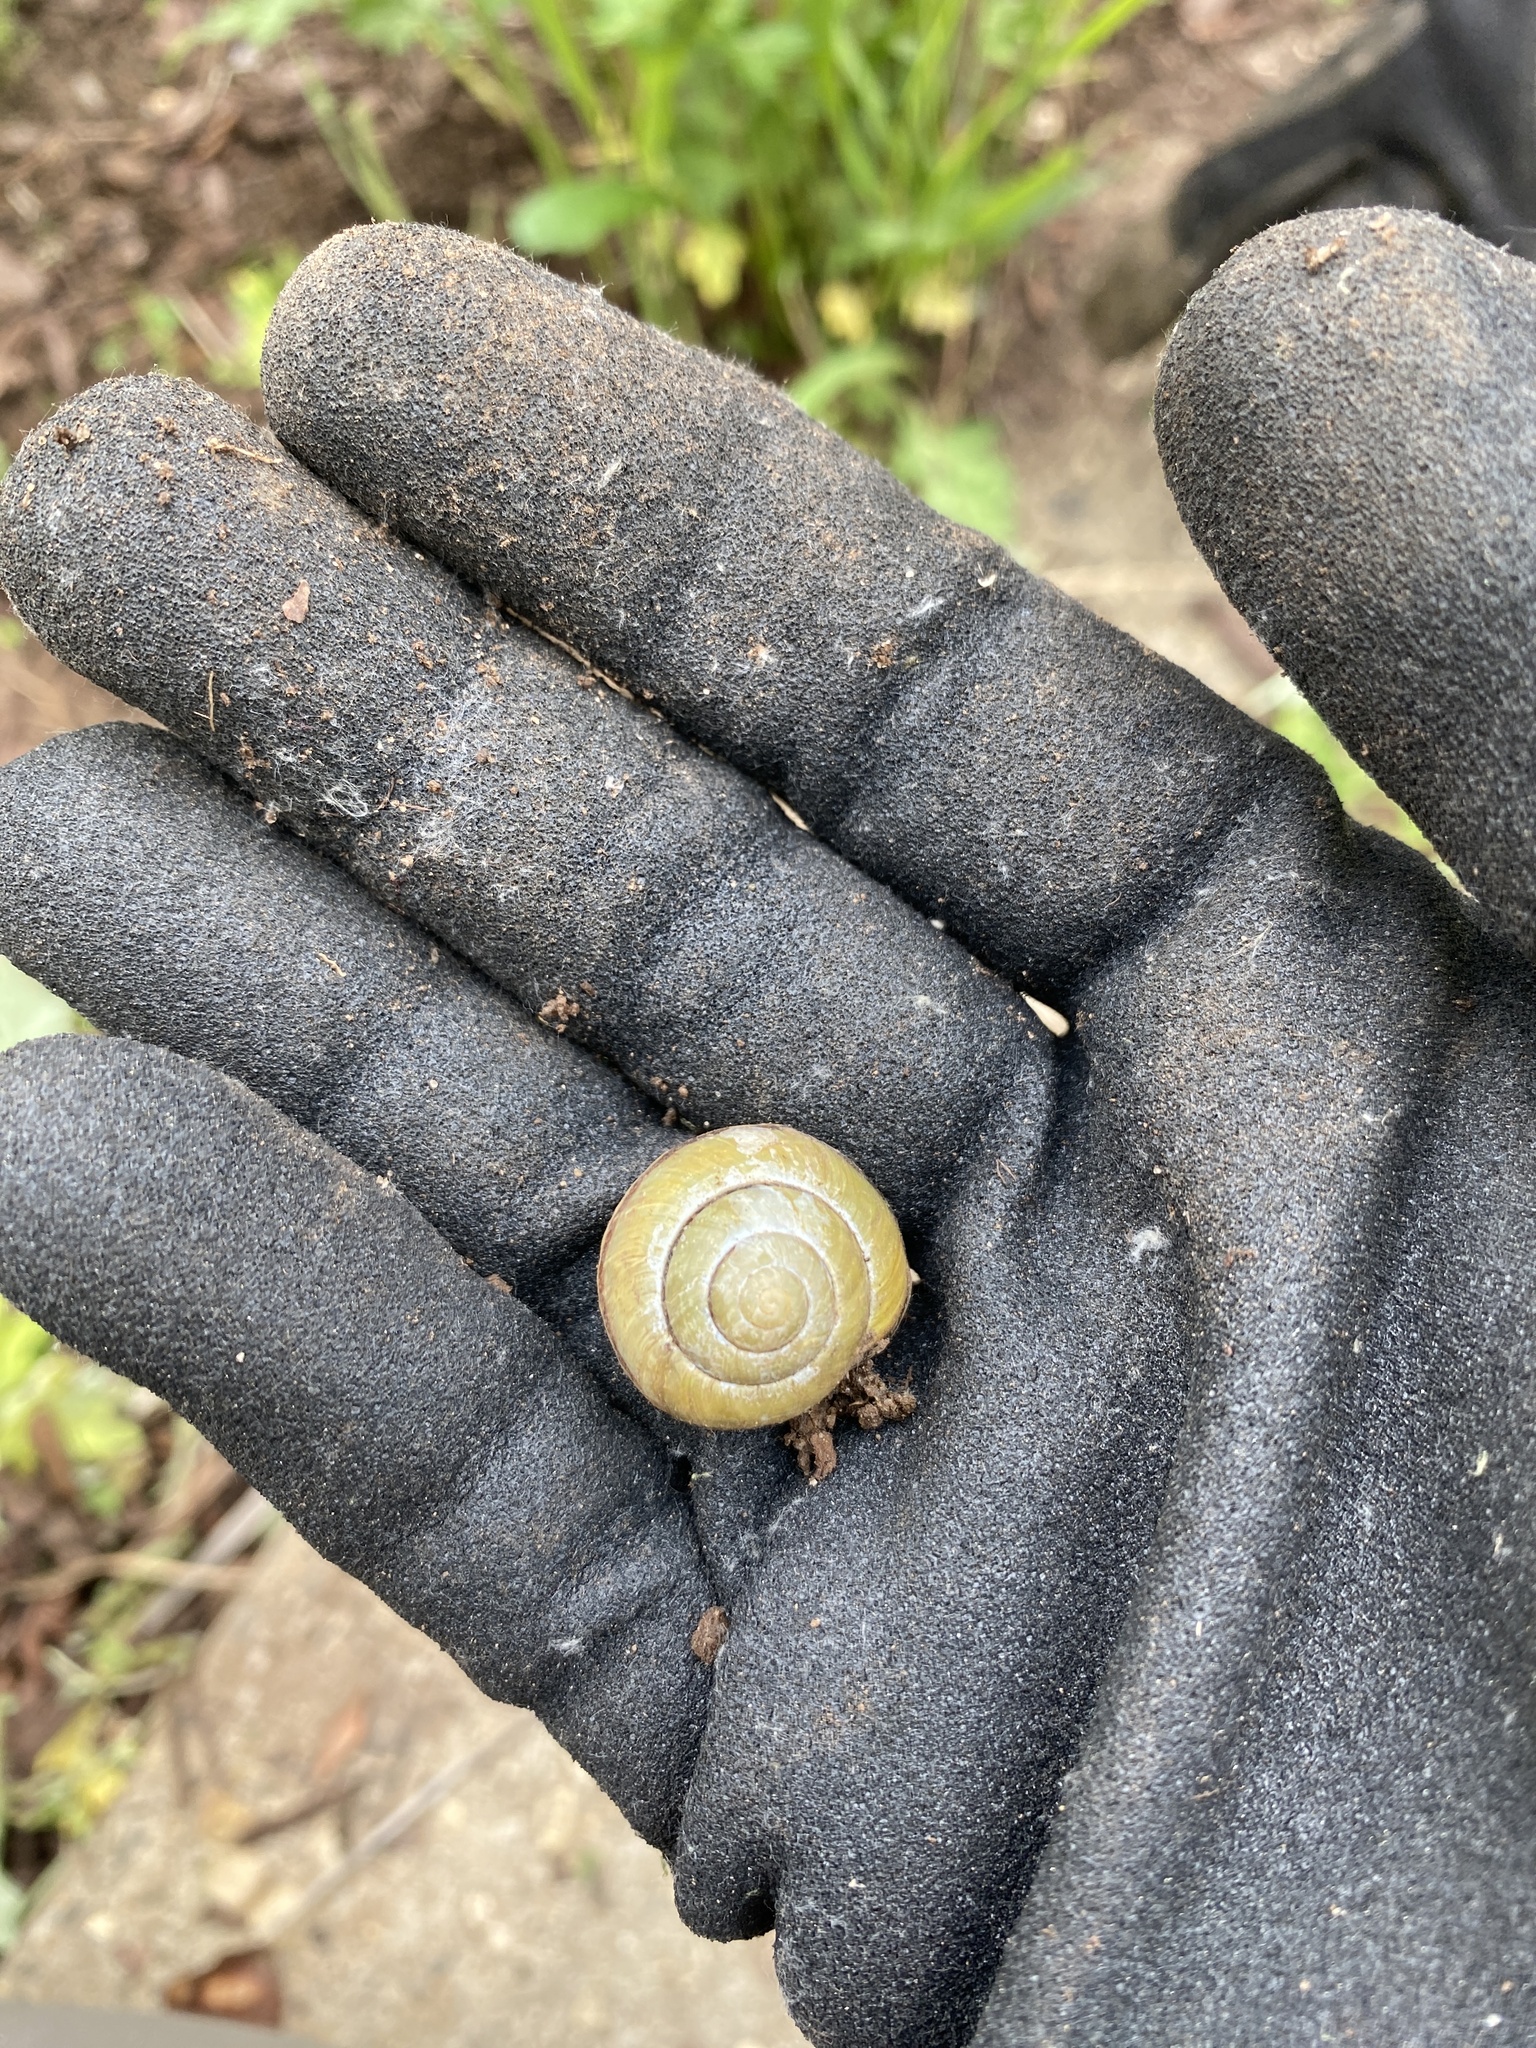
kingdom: Animalia
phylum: Mollusca
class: Gastropoda
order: Stylommatophora
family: Helicidae
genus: Cepaea
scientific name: Cepaea nemoralis
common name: Grovesnail
